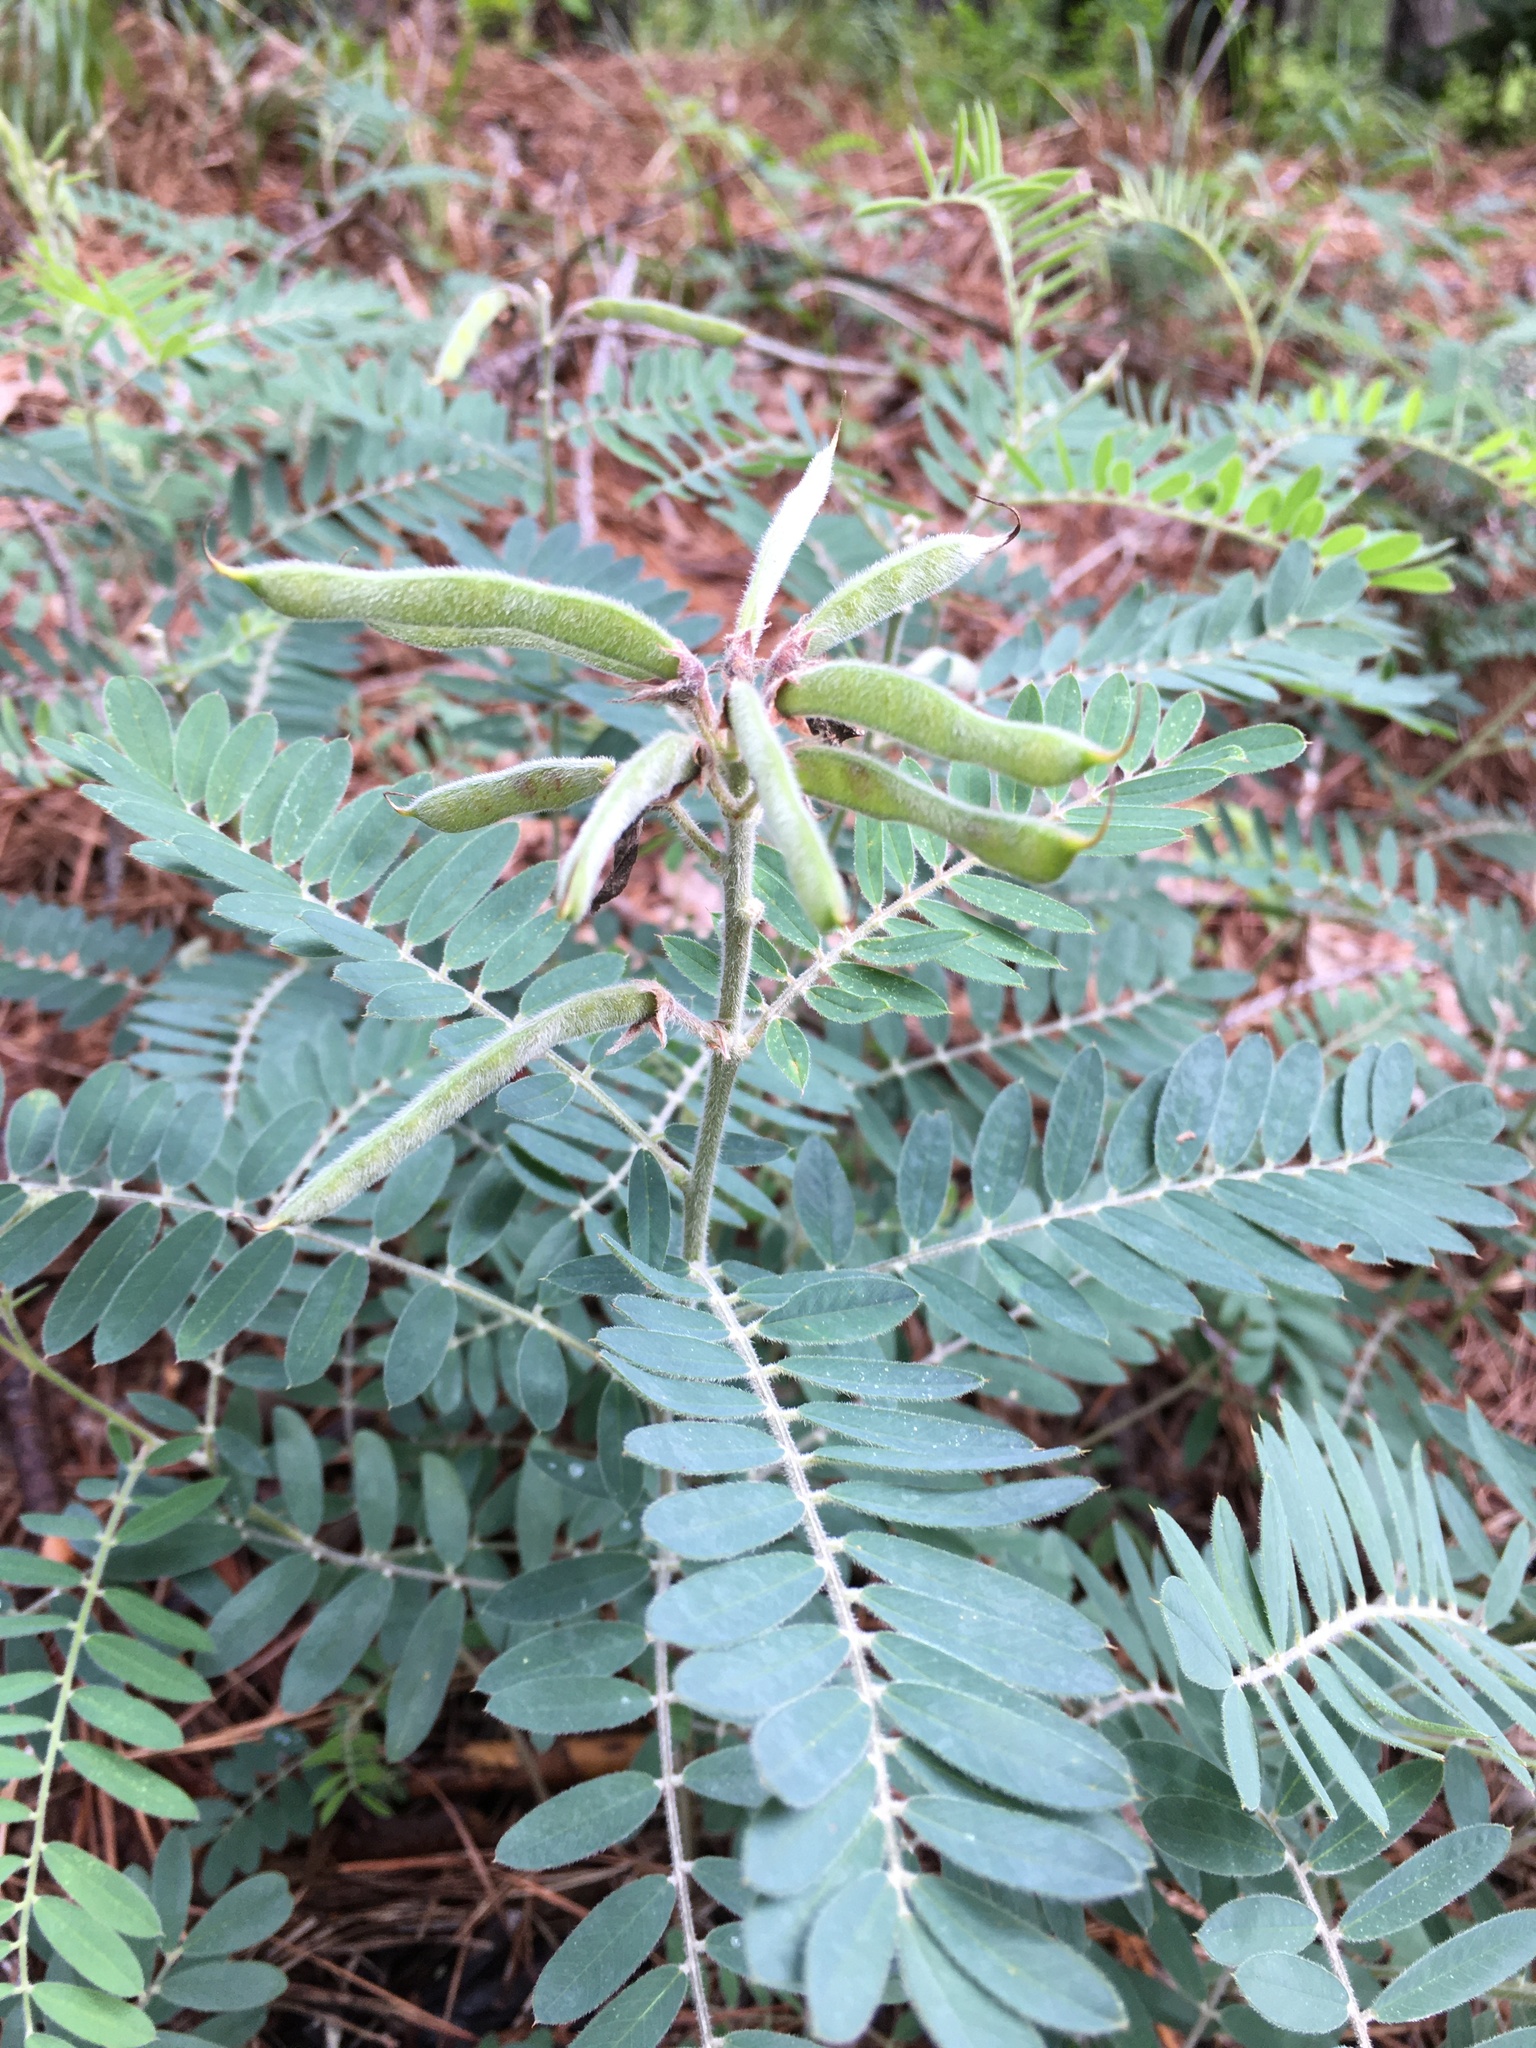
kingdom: Plantae
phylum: Tracheophyta
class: Magnoliopsida
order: Fabales
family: Fabaceae
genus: Tephrosia
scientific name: Tephrosia virginiana
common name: Rabbit-pea
